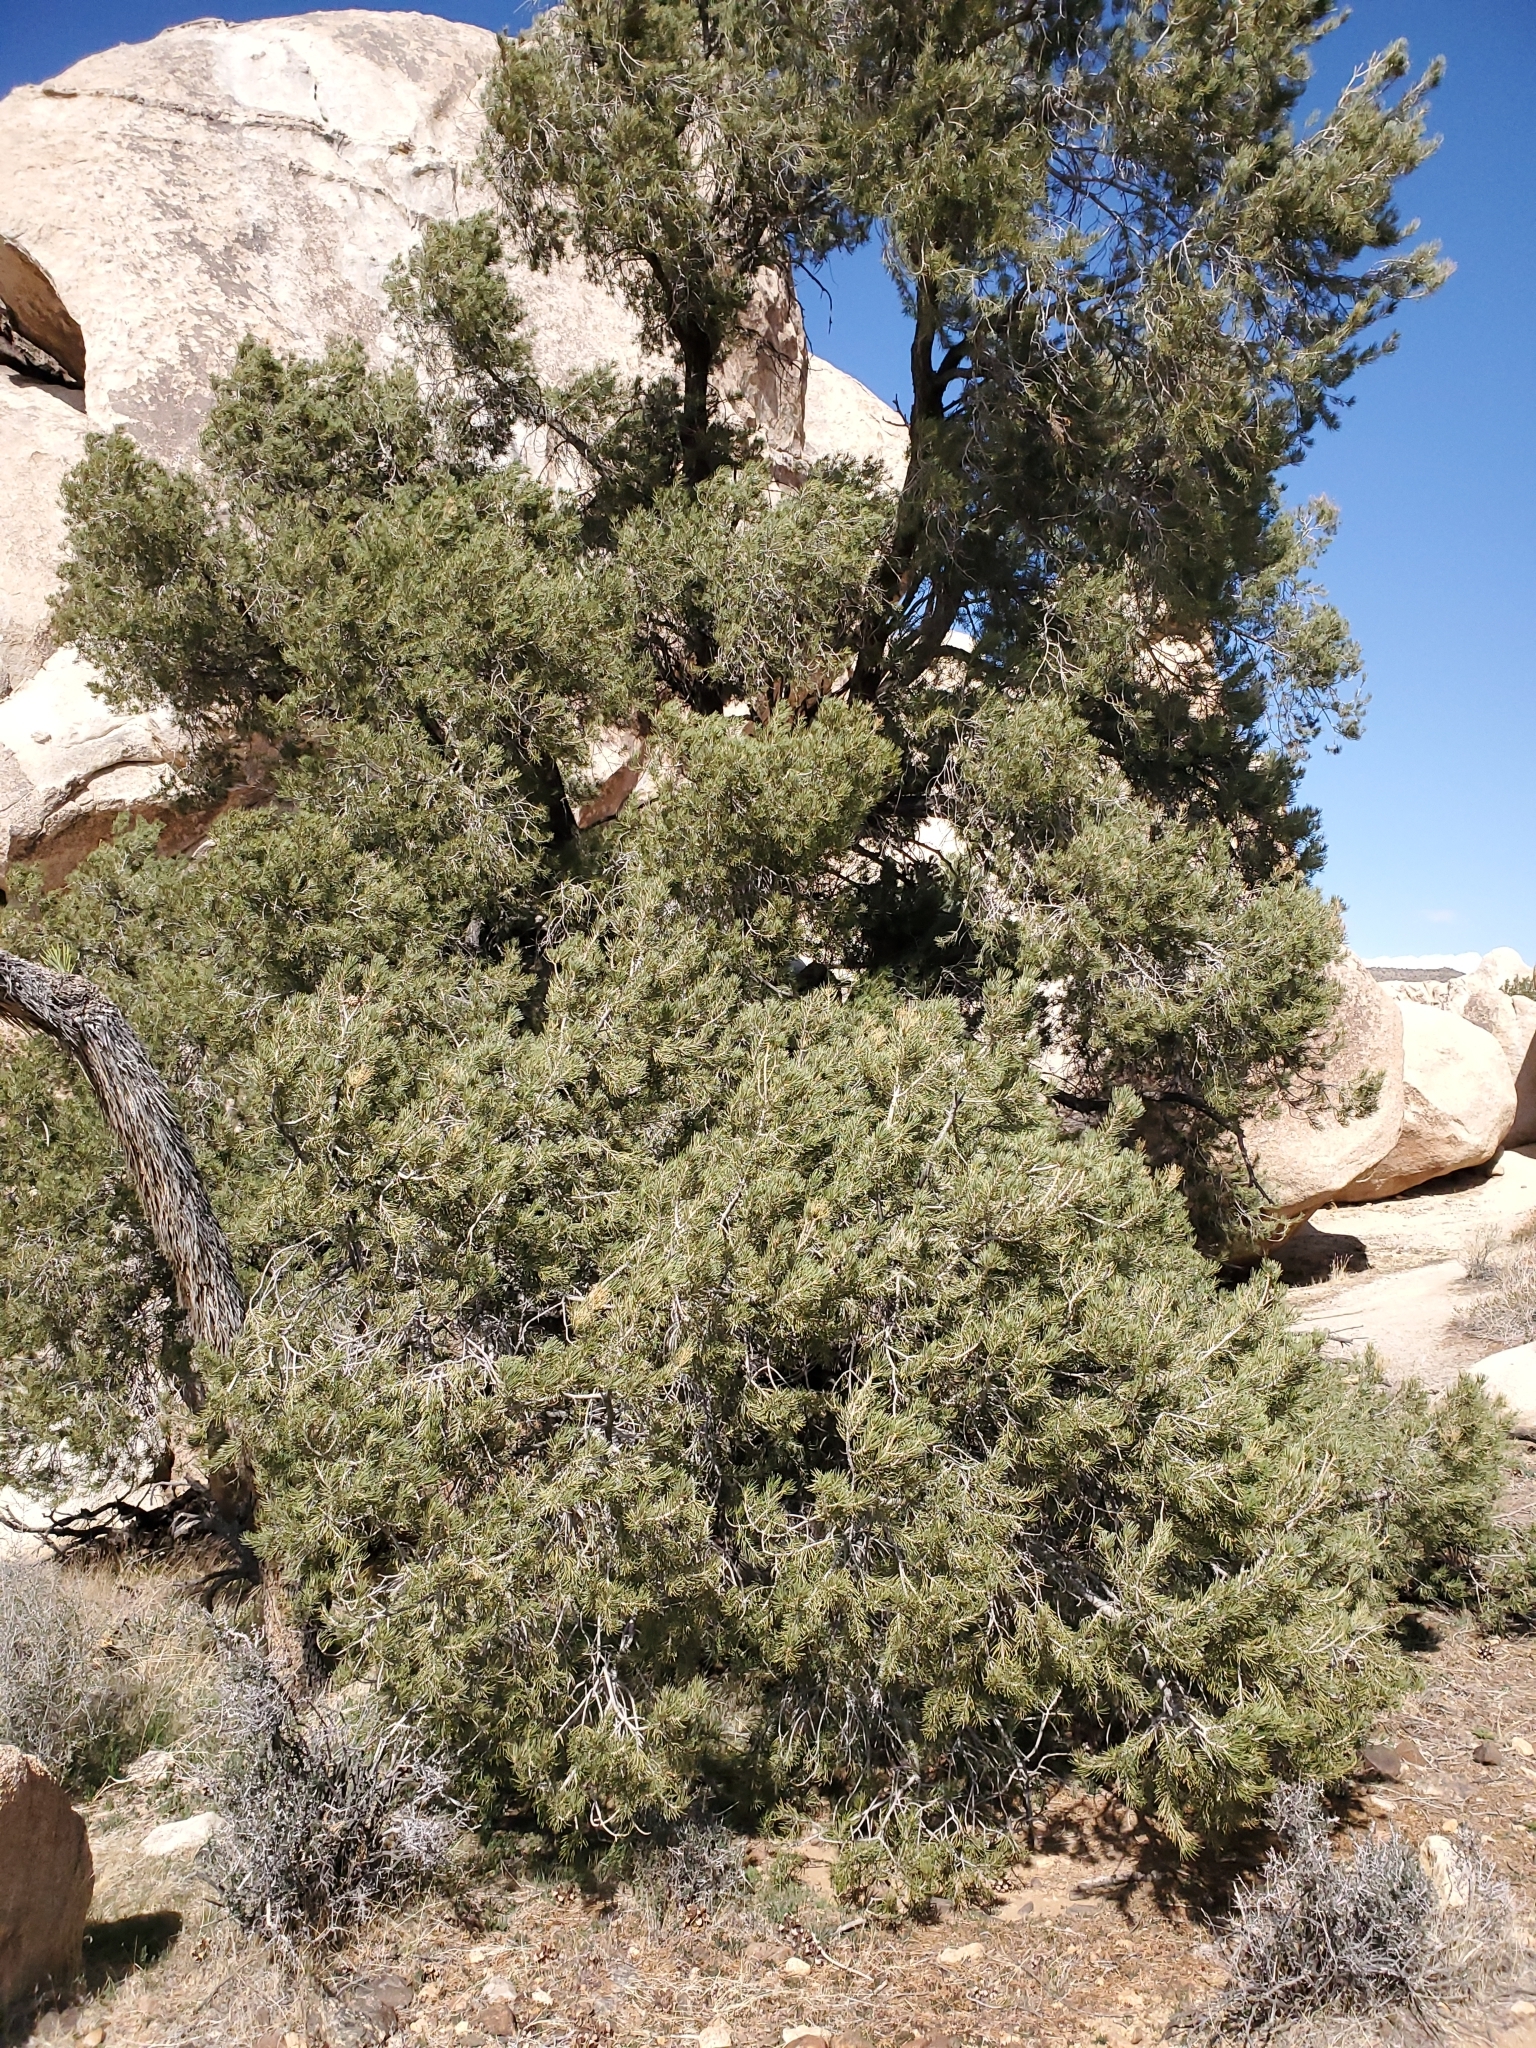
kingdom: Plantae
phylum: Tracheophyta
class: Pinopsida
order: Pinales
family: Pinaceae
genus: Pinus
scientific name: Pinus monophylla
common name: One-leaved nut pine
